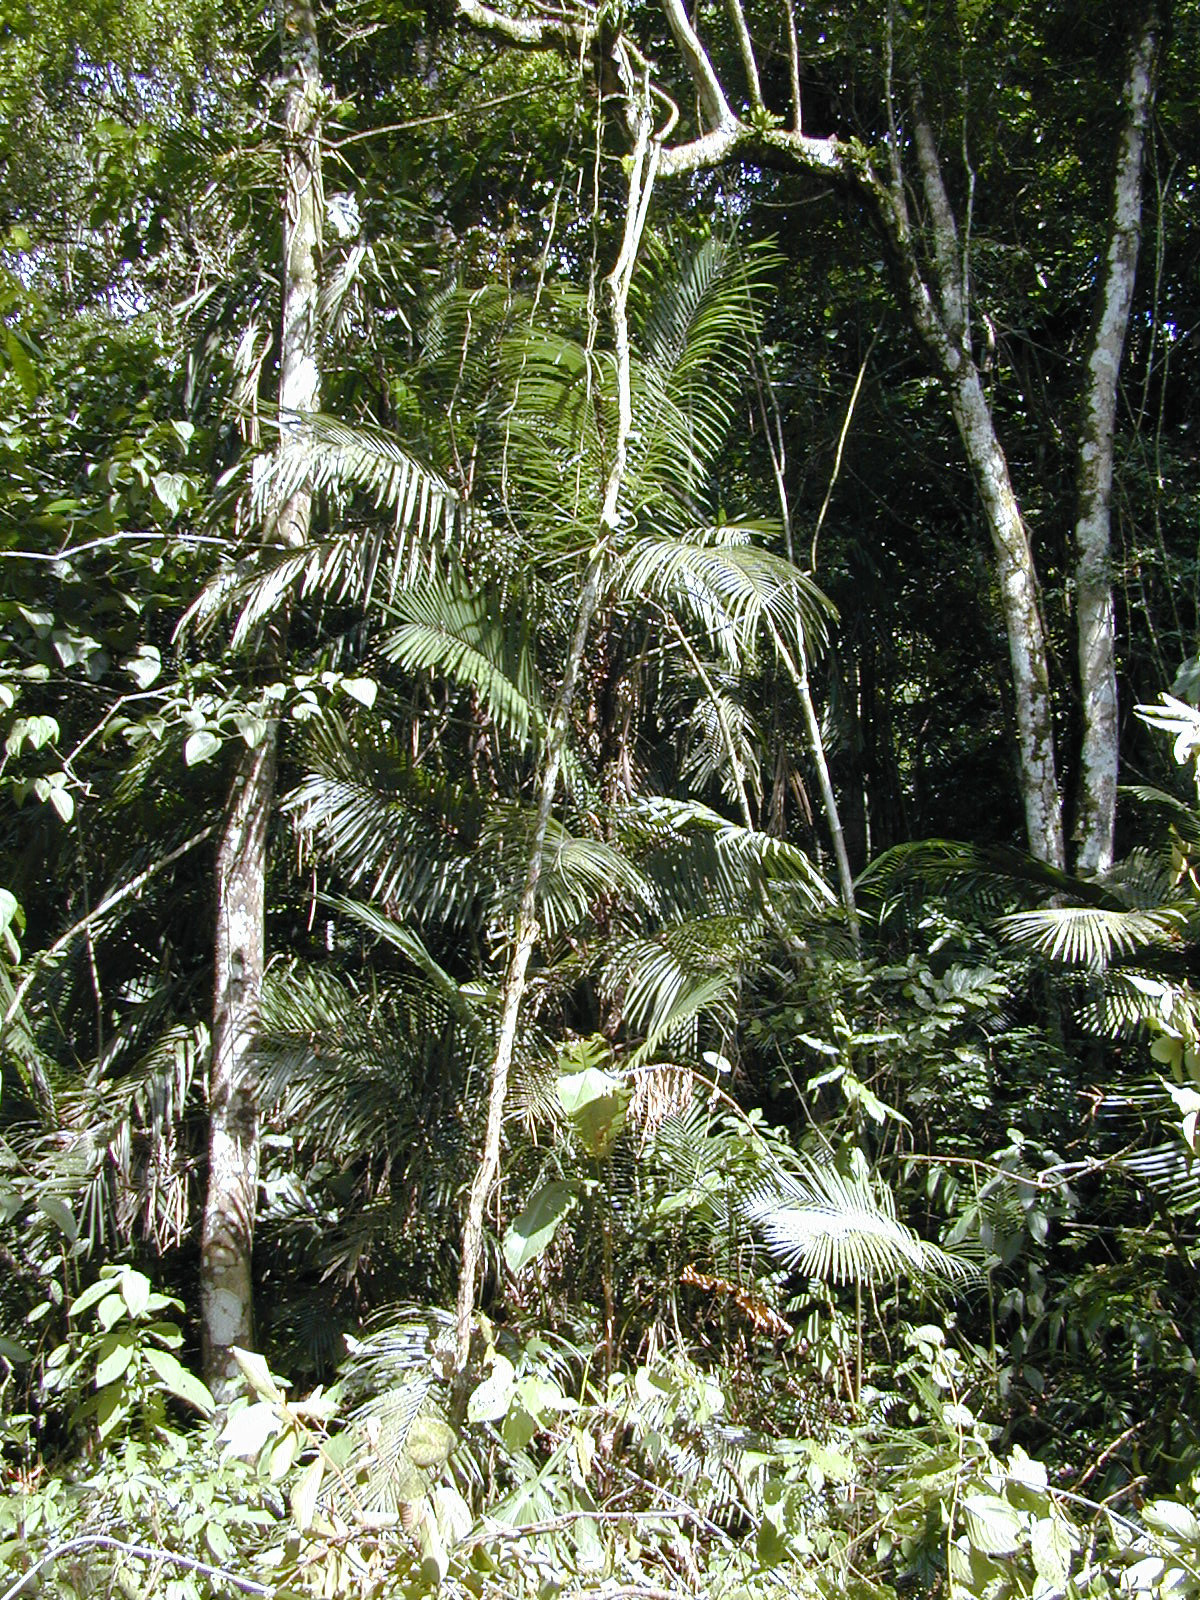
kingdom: Plantae
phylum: Tracheophyta
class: Liliopsida
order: Arecales
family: Arecaceae
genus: Bactris
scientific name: Bactris major
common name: Beach palm
